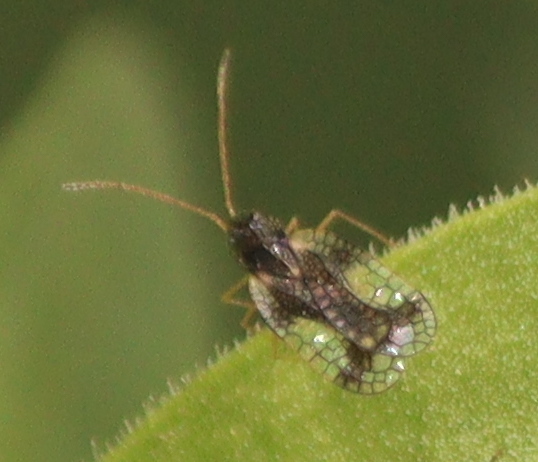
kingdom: Animalia
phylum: Arthropoda
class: Insecta
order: Hemiptera
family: Tingidae
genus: Stephanitis
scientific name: Stephanitis takeyai
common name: Andromeda lacebug
